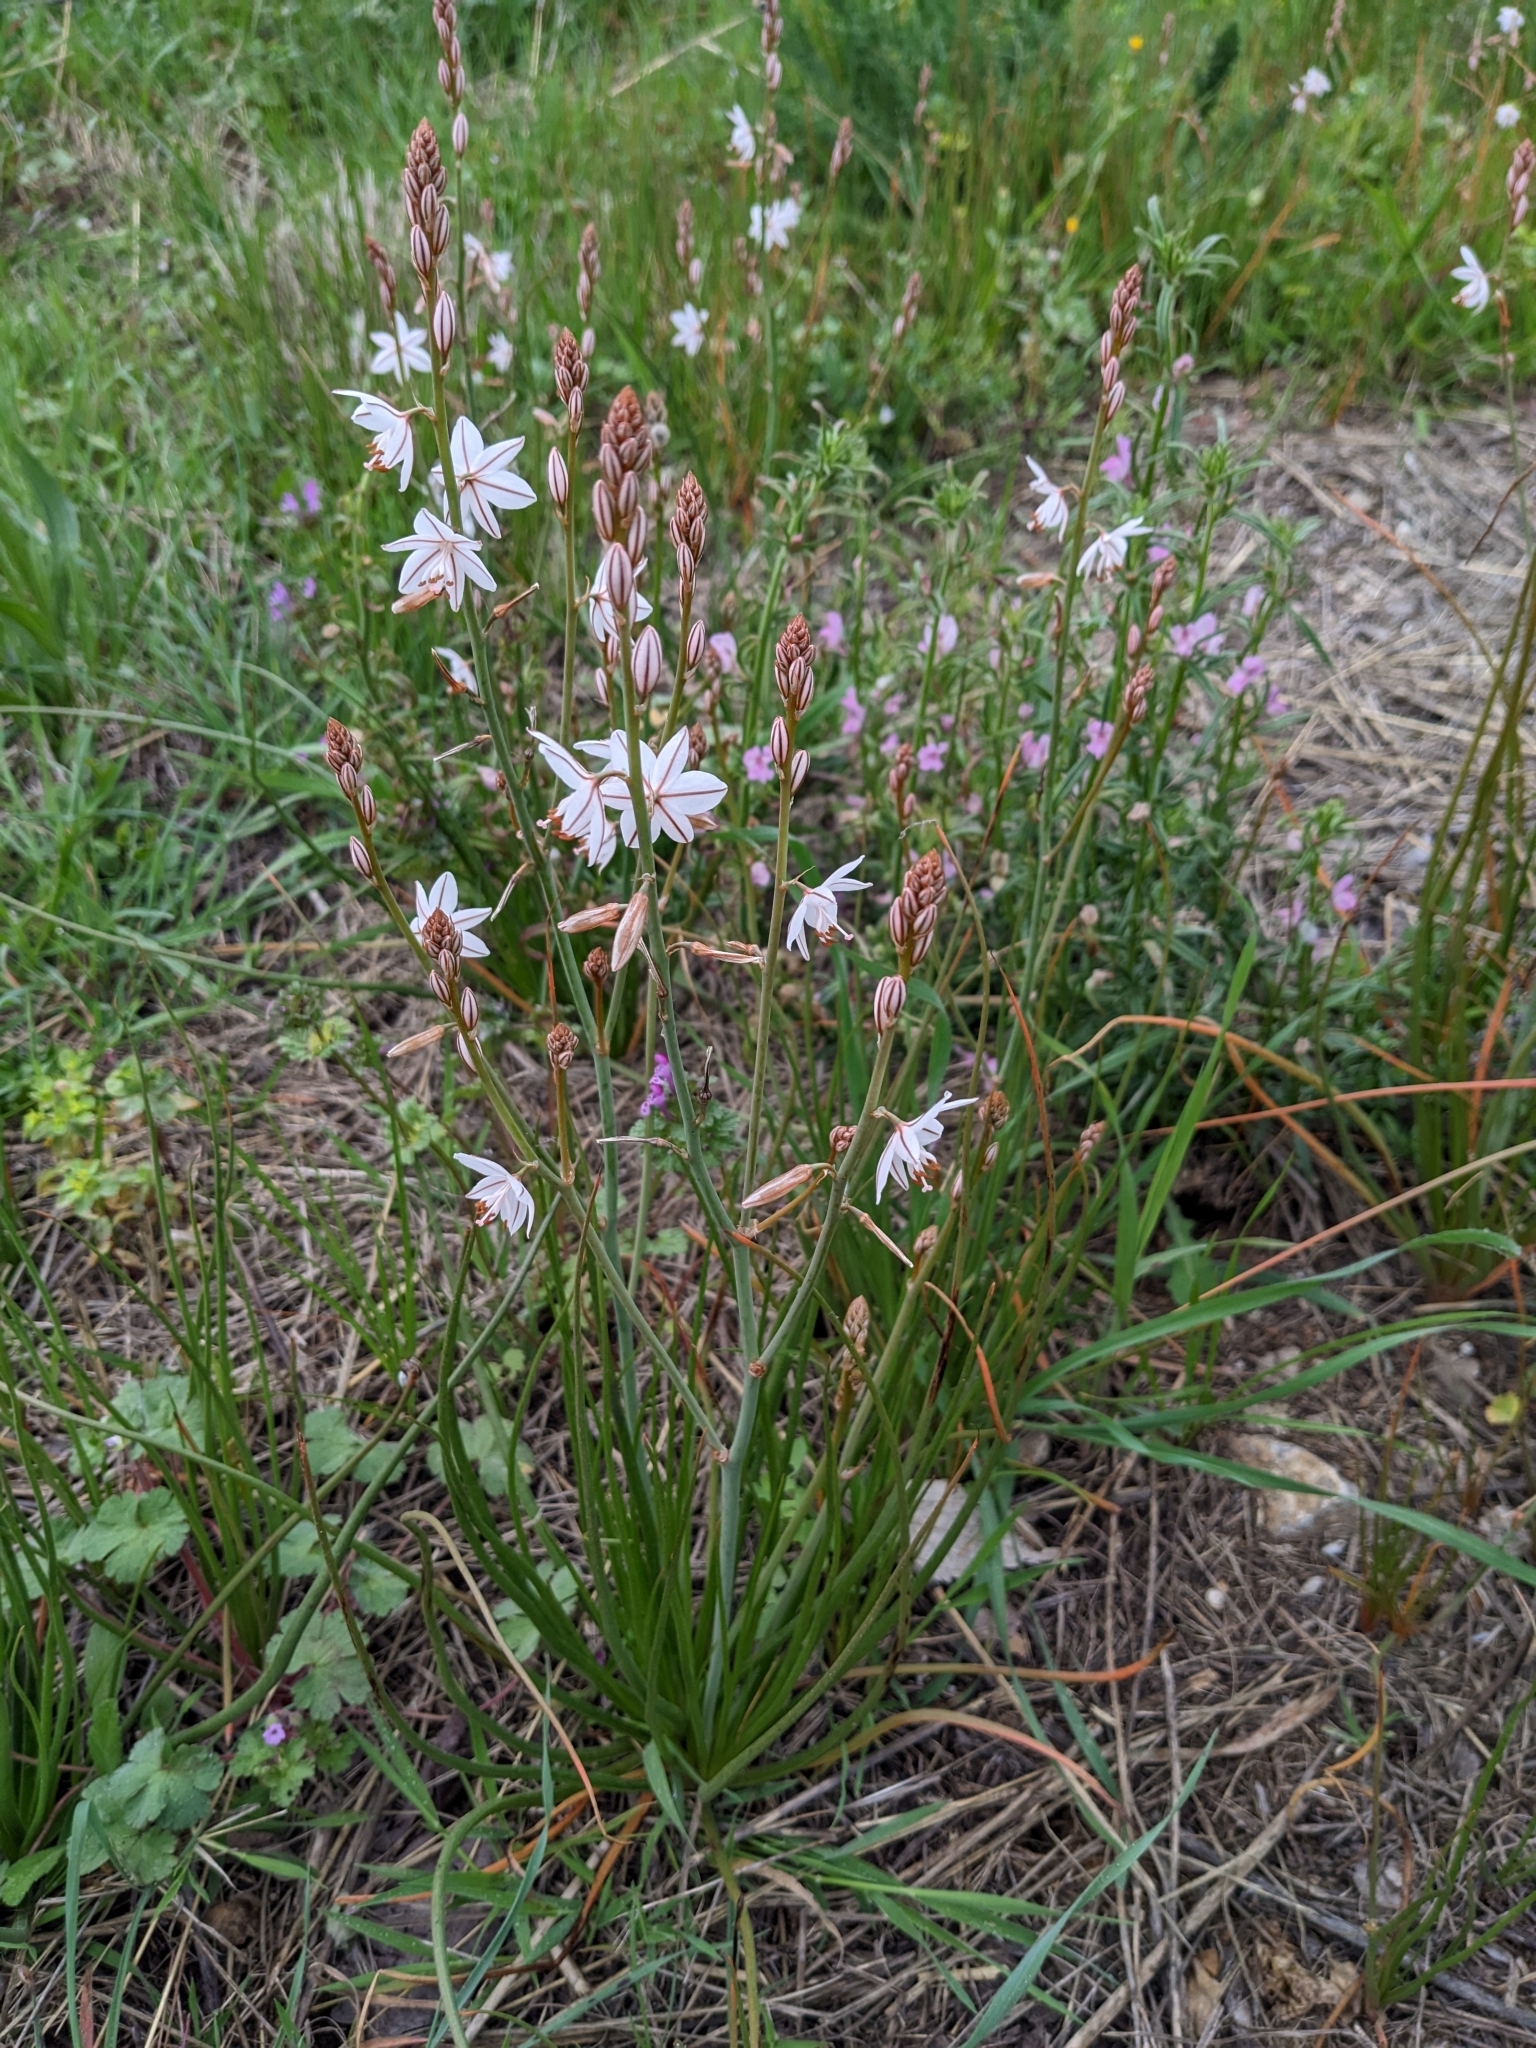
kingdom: Plantae
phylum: Tracheophyta
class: Liliopsida
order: Asparagales
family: Asphodelaceae
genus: Asphodelus
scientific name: Asphodelus fistulosus
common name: Onionweed
